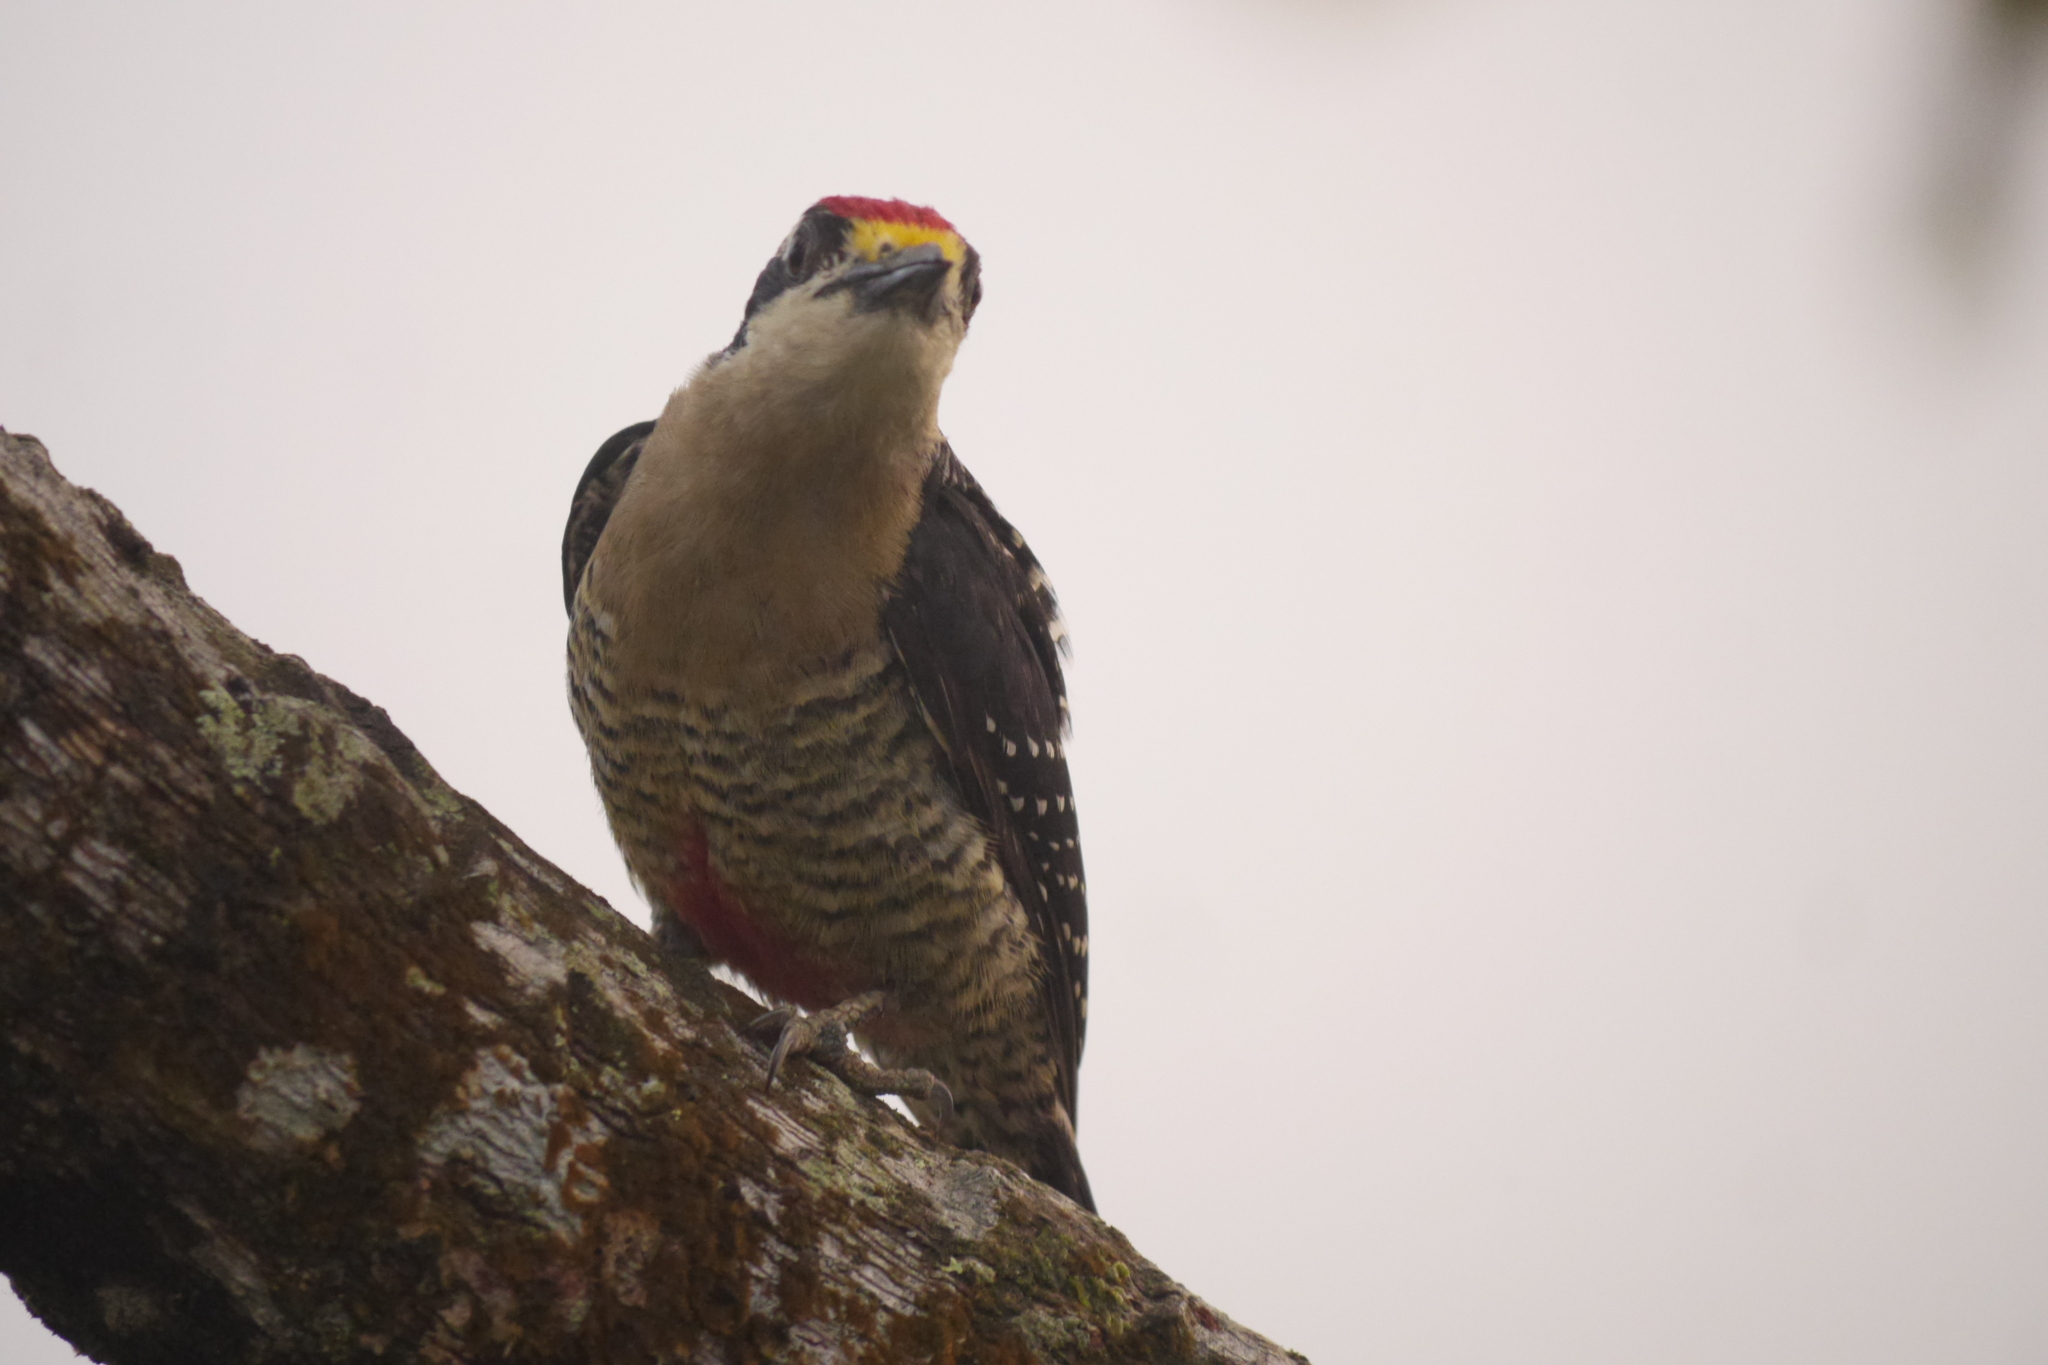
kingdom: Animalia
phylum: Chordata
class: Aves
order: Piciformes
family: Picidae
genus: Melanerpes
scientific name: Melanerpes pucherani
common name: Black-cheeked woodpecker
